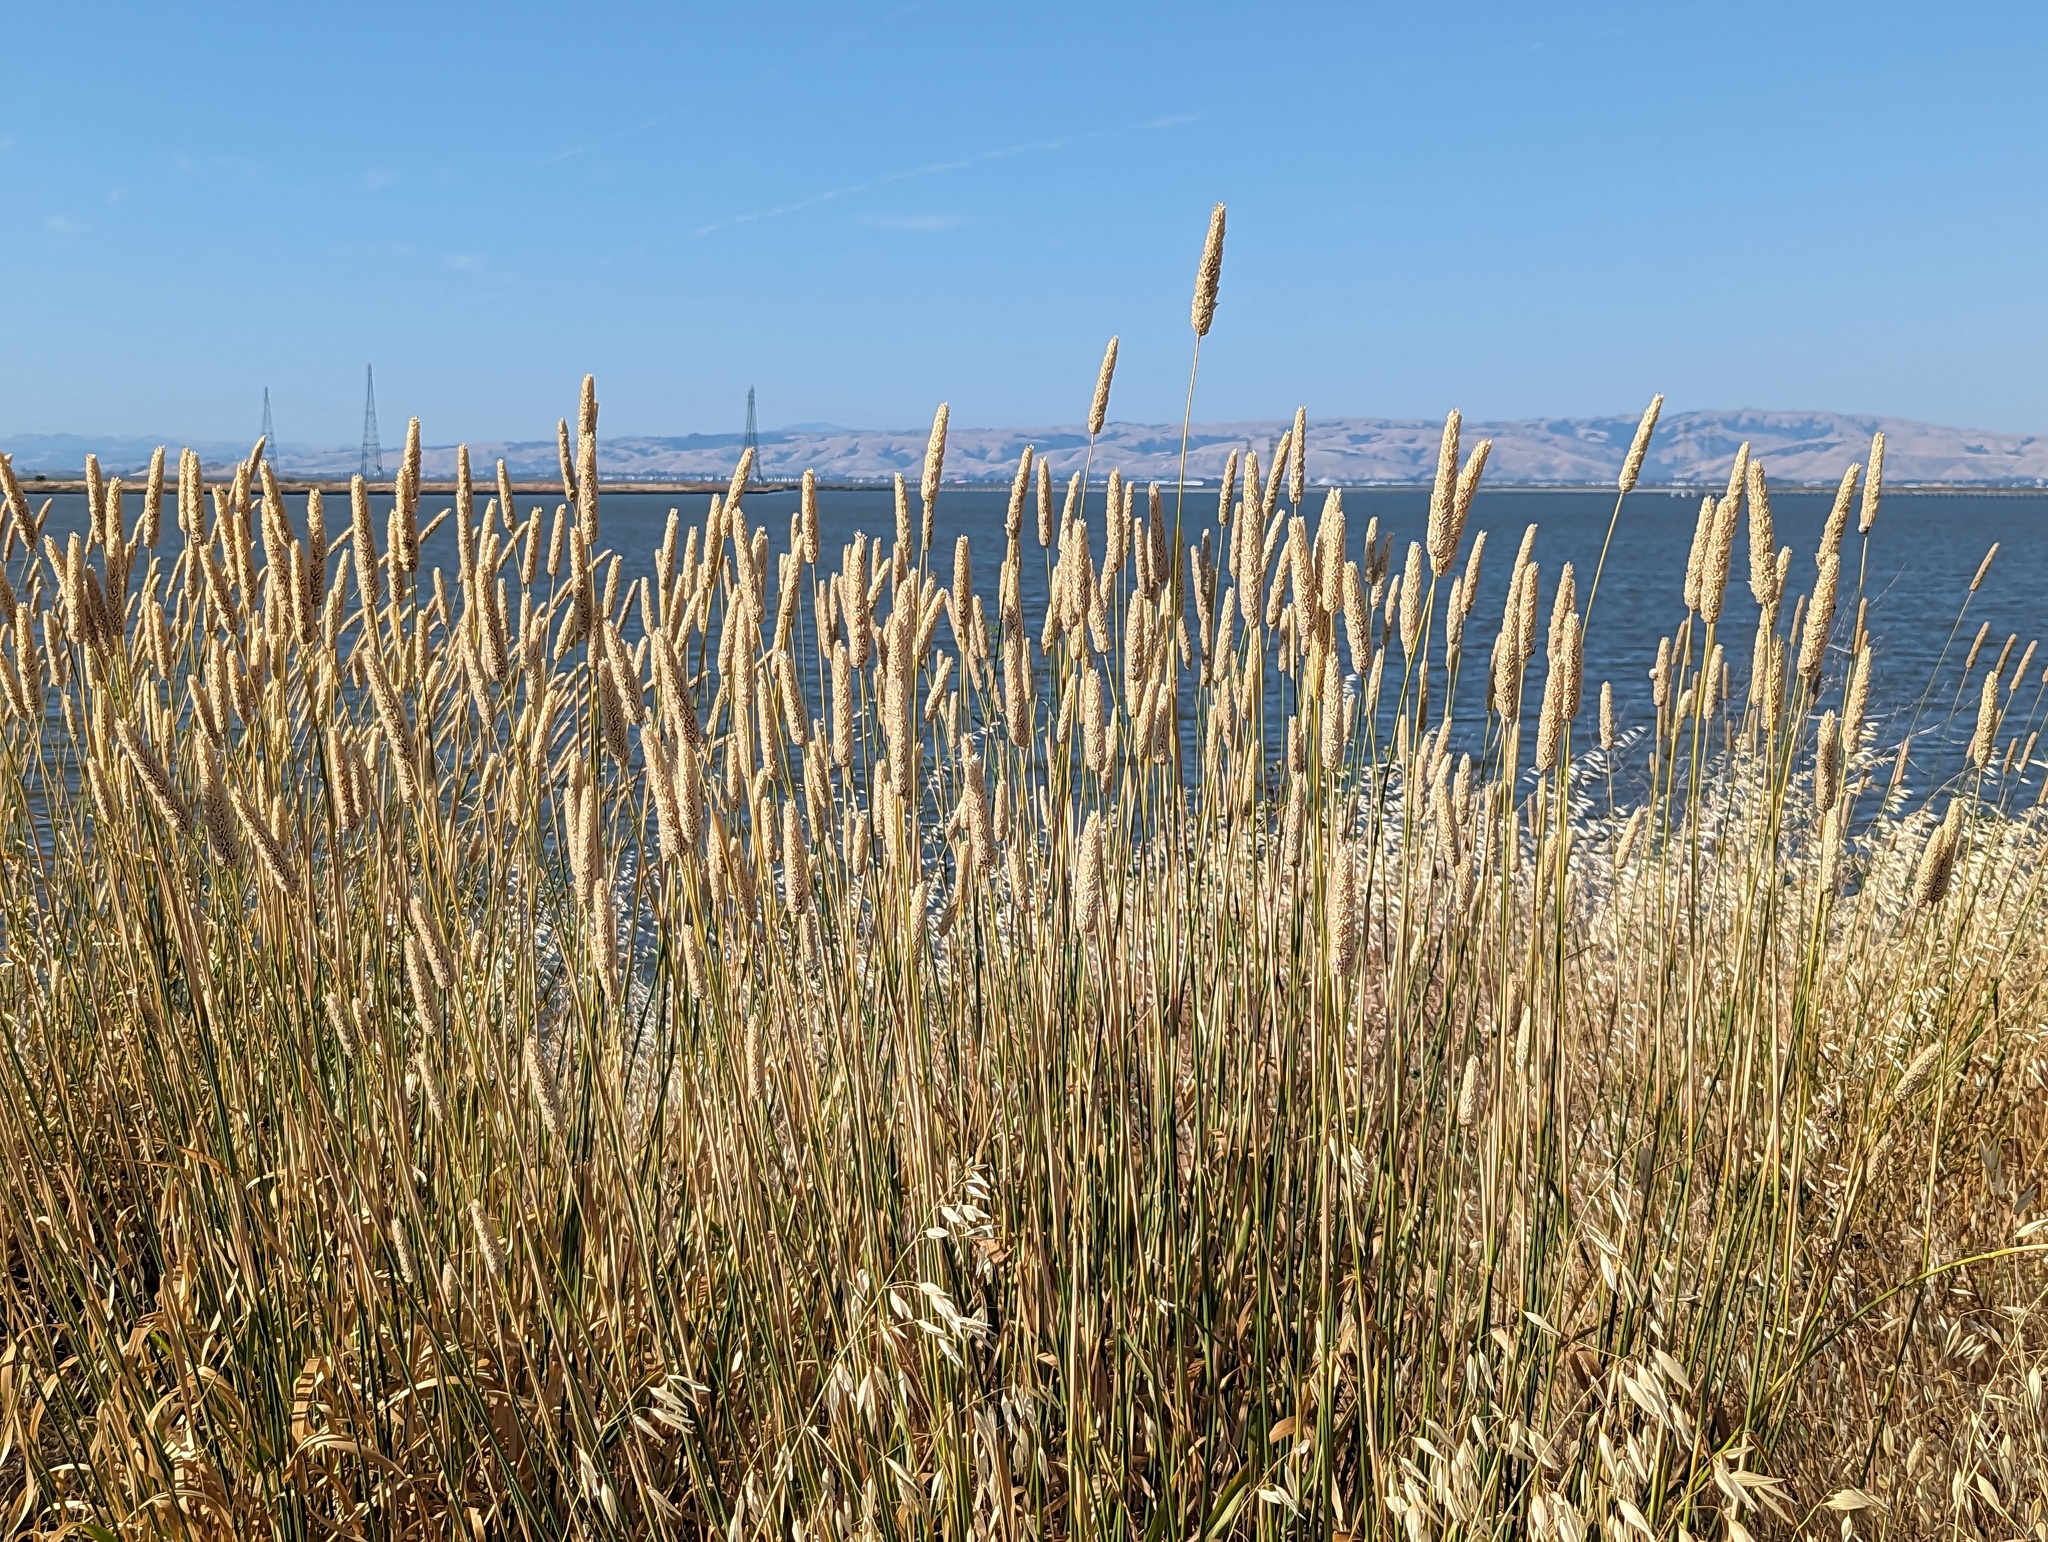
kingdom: Plantae
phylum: Tracheophyta
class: Liliopsida
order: Poales
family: Poaceae
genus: Phalaris
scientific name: Phalaris aquatica
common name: Bulbous canary-grass
